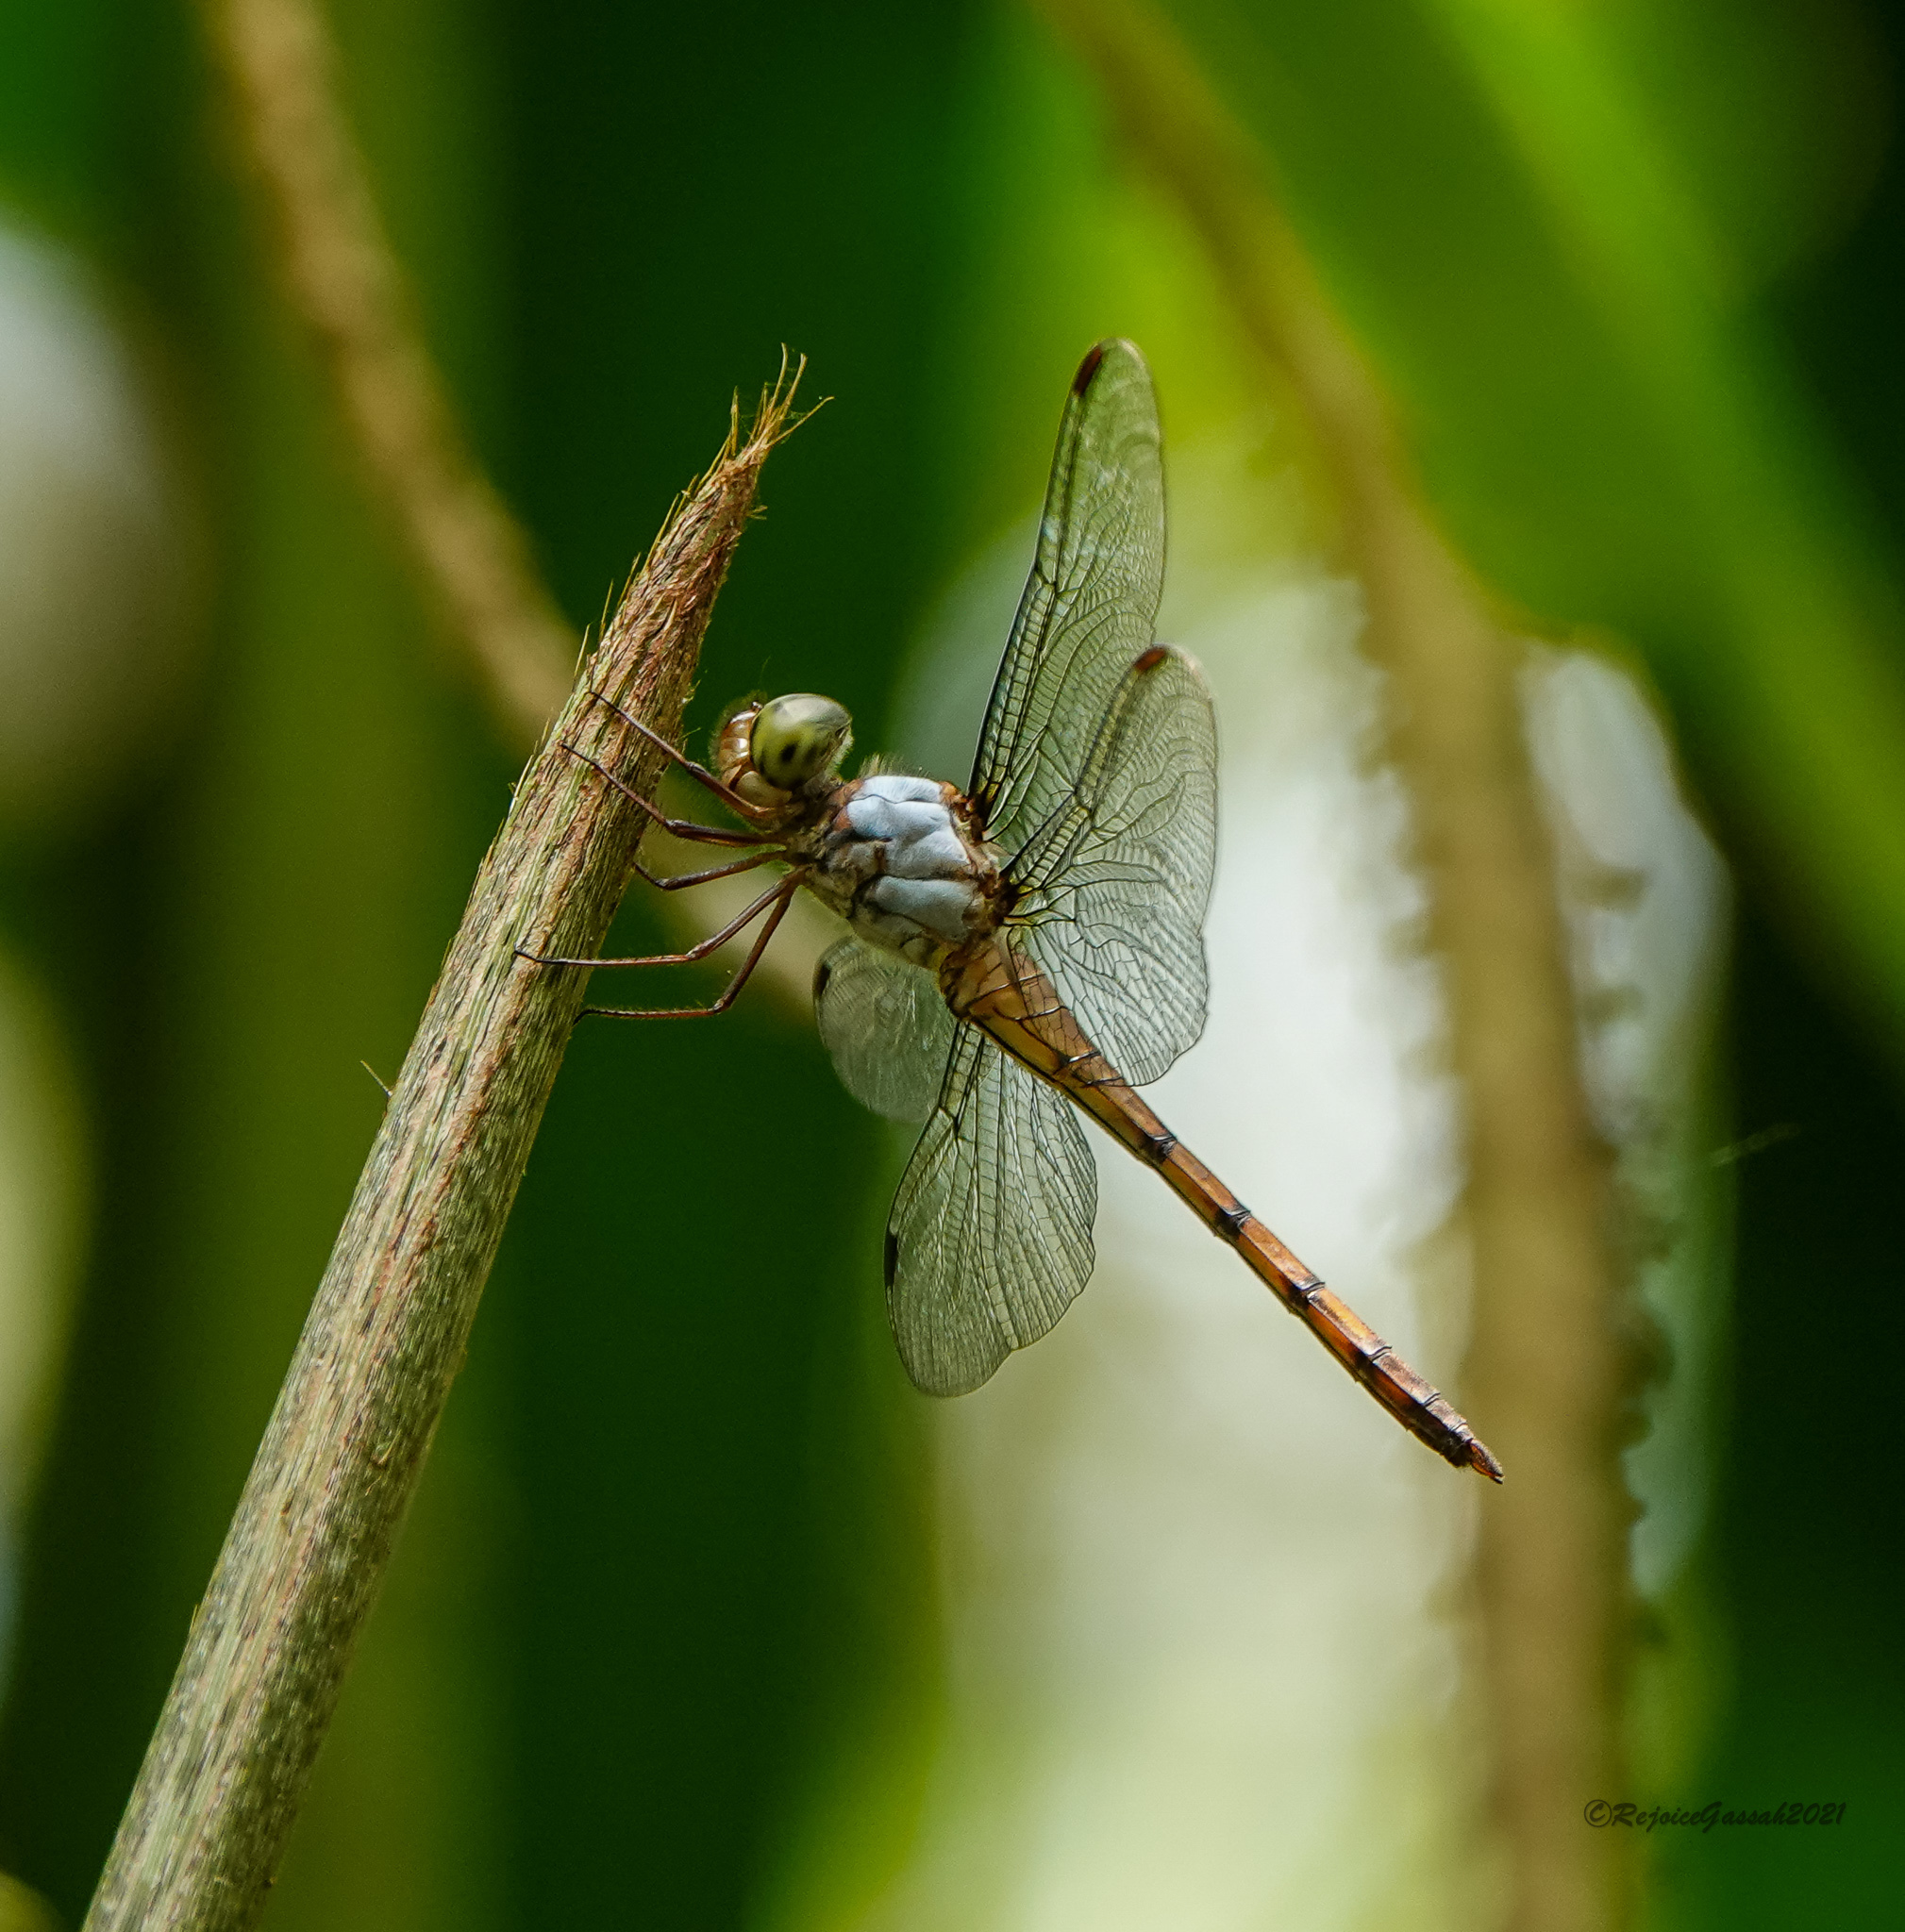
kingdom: Animalia
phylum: Arthropoda
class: Insecta
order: Odonata
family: Libellulidae
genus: Potamarcha
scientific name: Potamarcha congener
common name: Blue chaser
